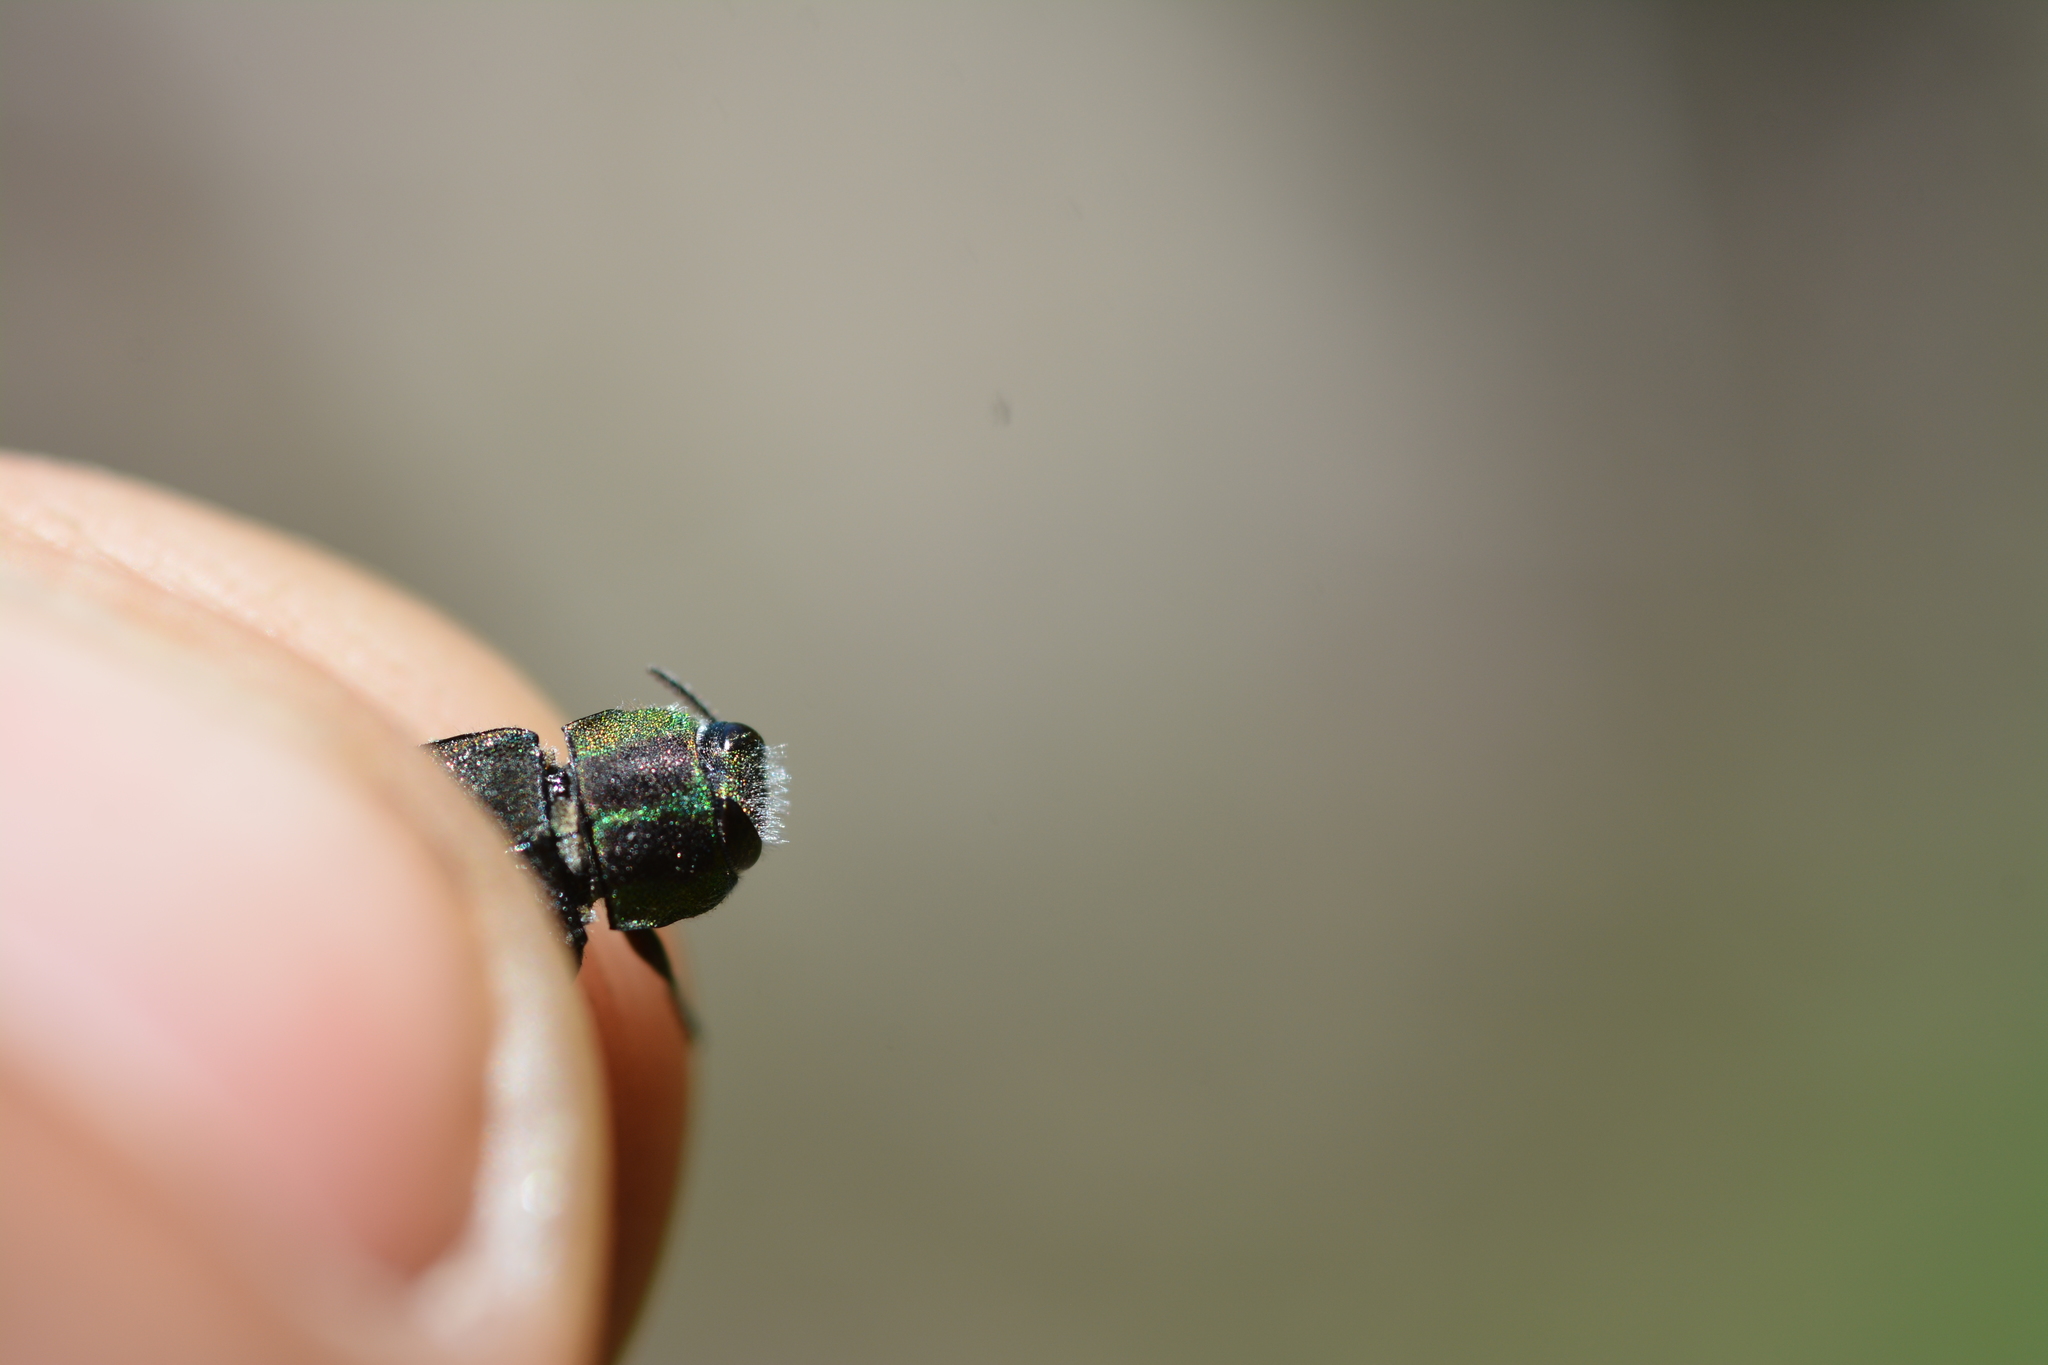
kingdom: Animalia
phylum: Arthropoda
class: Insecta
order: Coleoptera
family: Buprestidae
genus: Anthaxia
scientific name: Anthaxia manca
